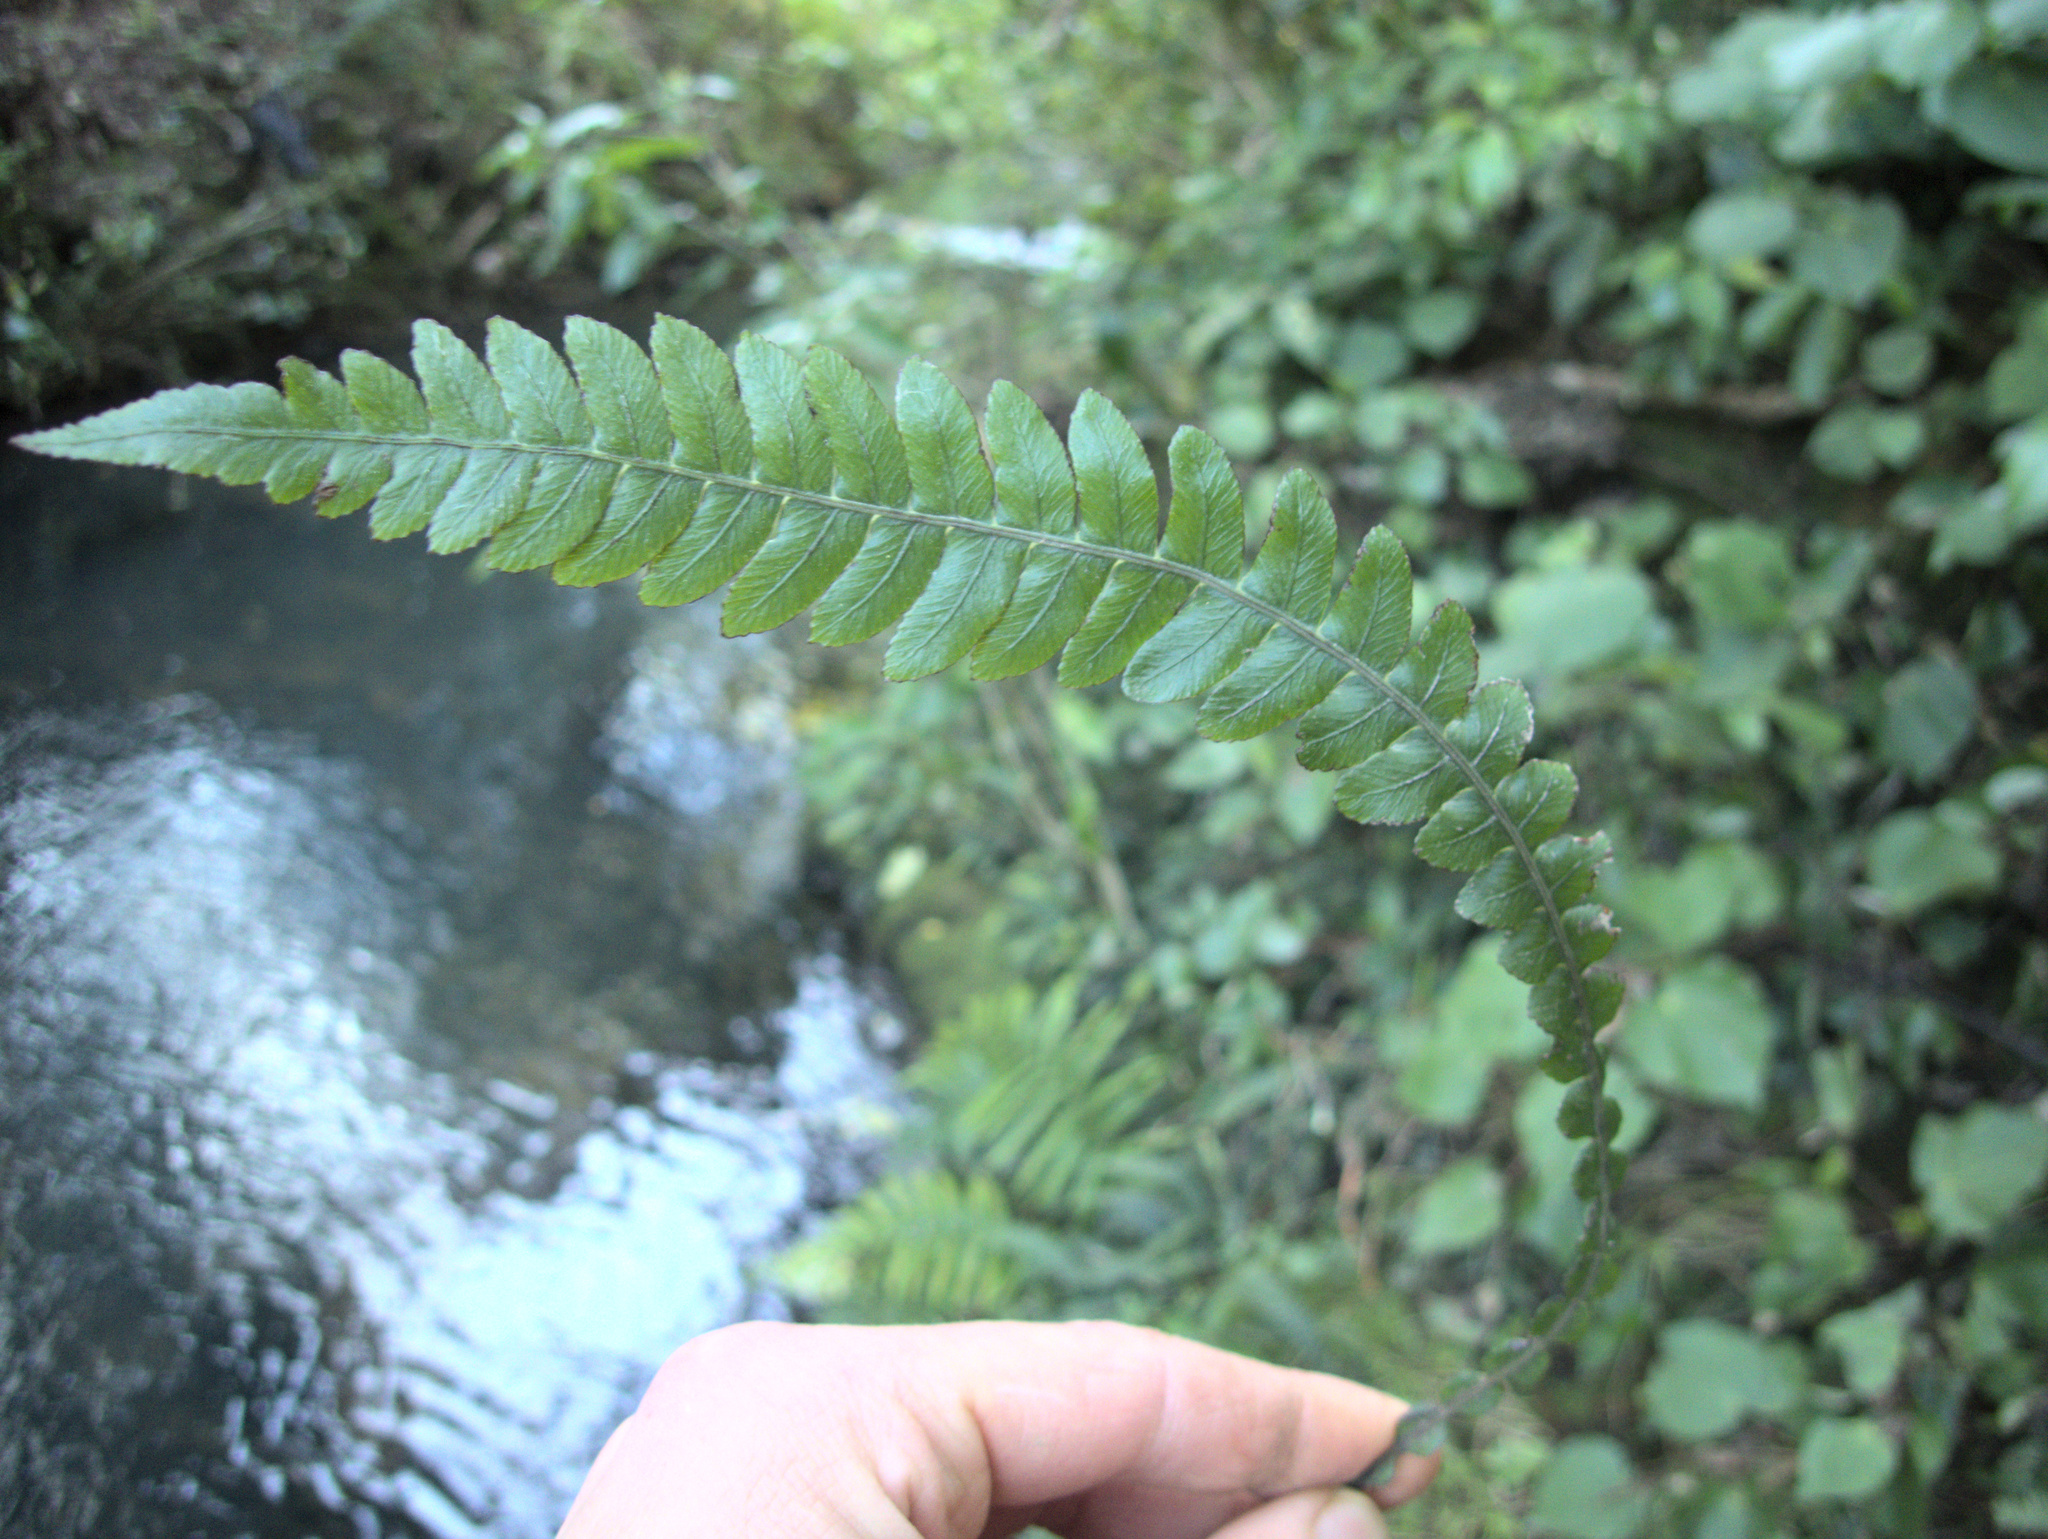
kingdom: Plantae
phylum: Tracheophyta
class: Polypodiopsida
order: Polypodiales
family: Blechnaceae
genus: Austroblechnum
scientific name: Austroblechnum lanceolatum
